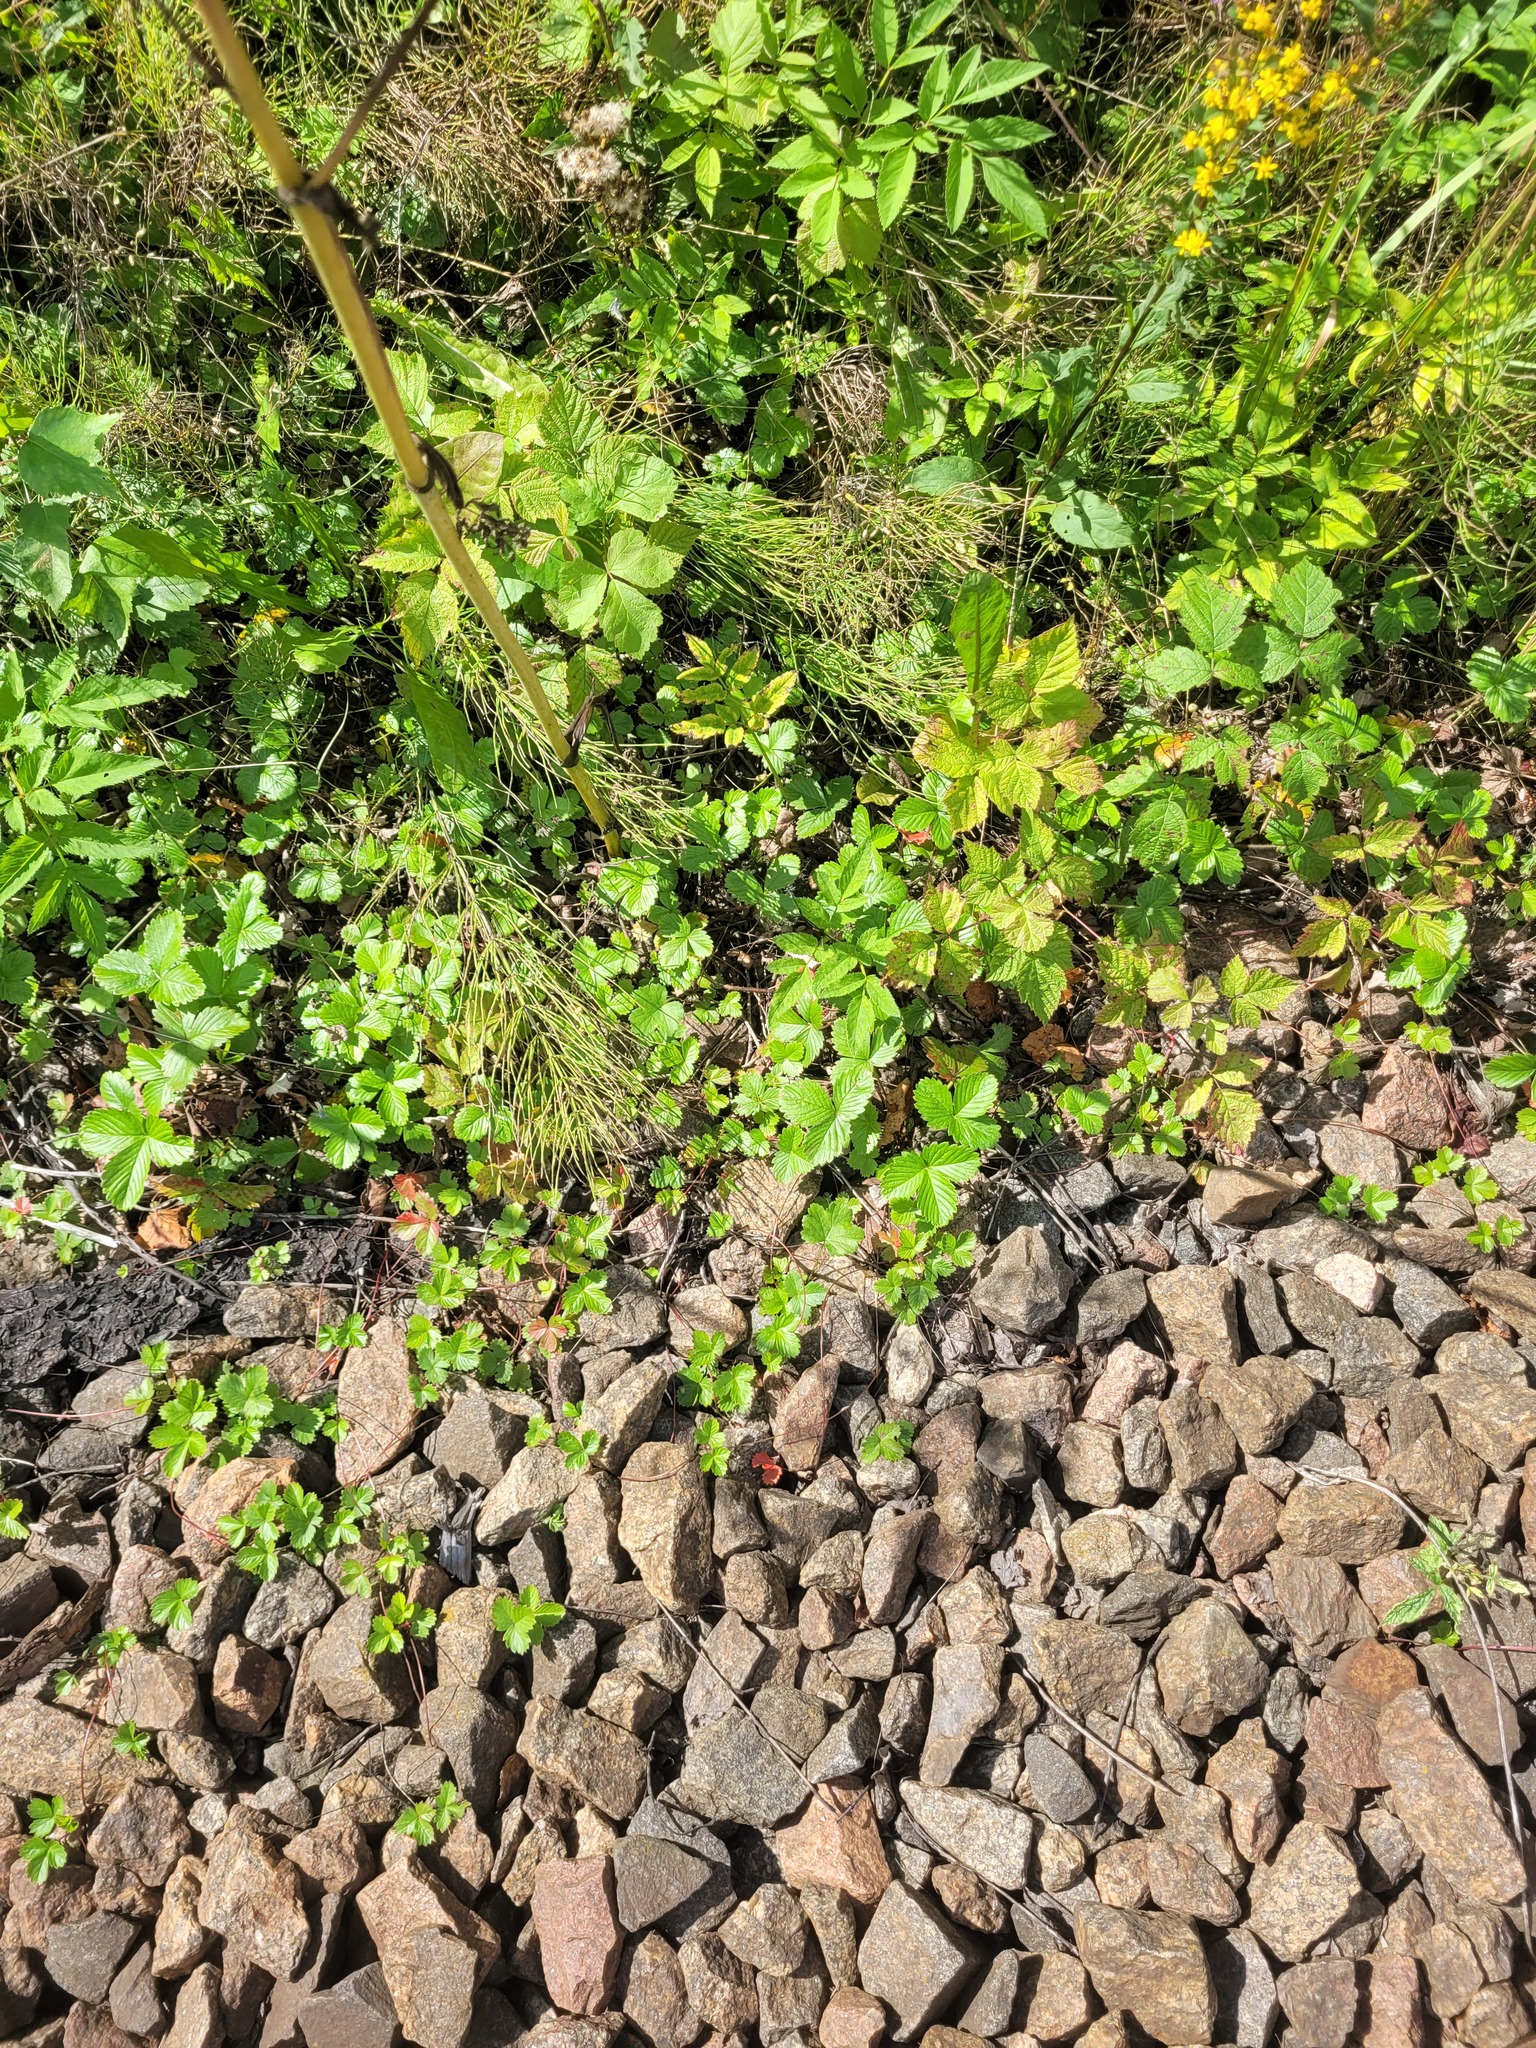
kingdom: Plantae
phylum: Tracheophyta
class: Magnoliopsida
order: Rosales
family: Rosaceae
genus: Fragaria
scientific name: Fragaria viridis
